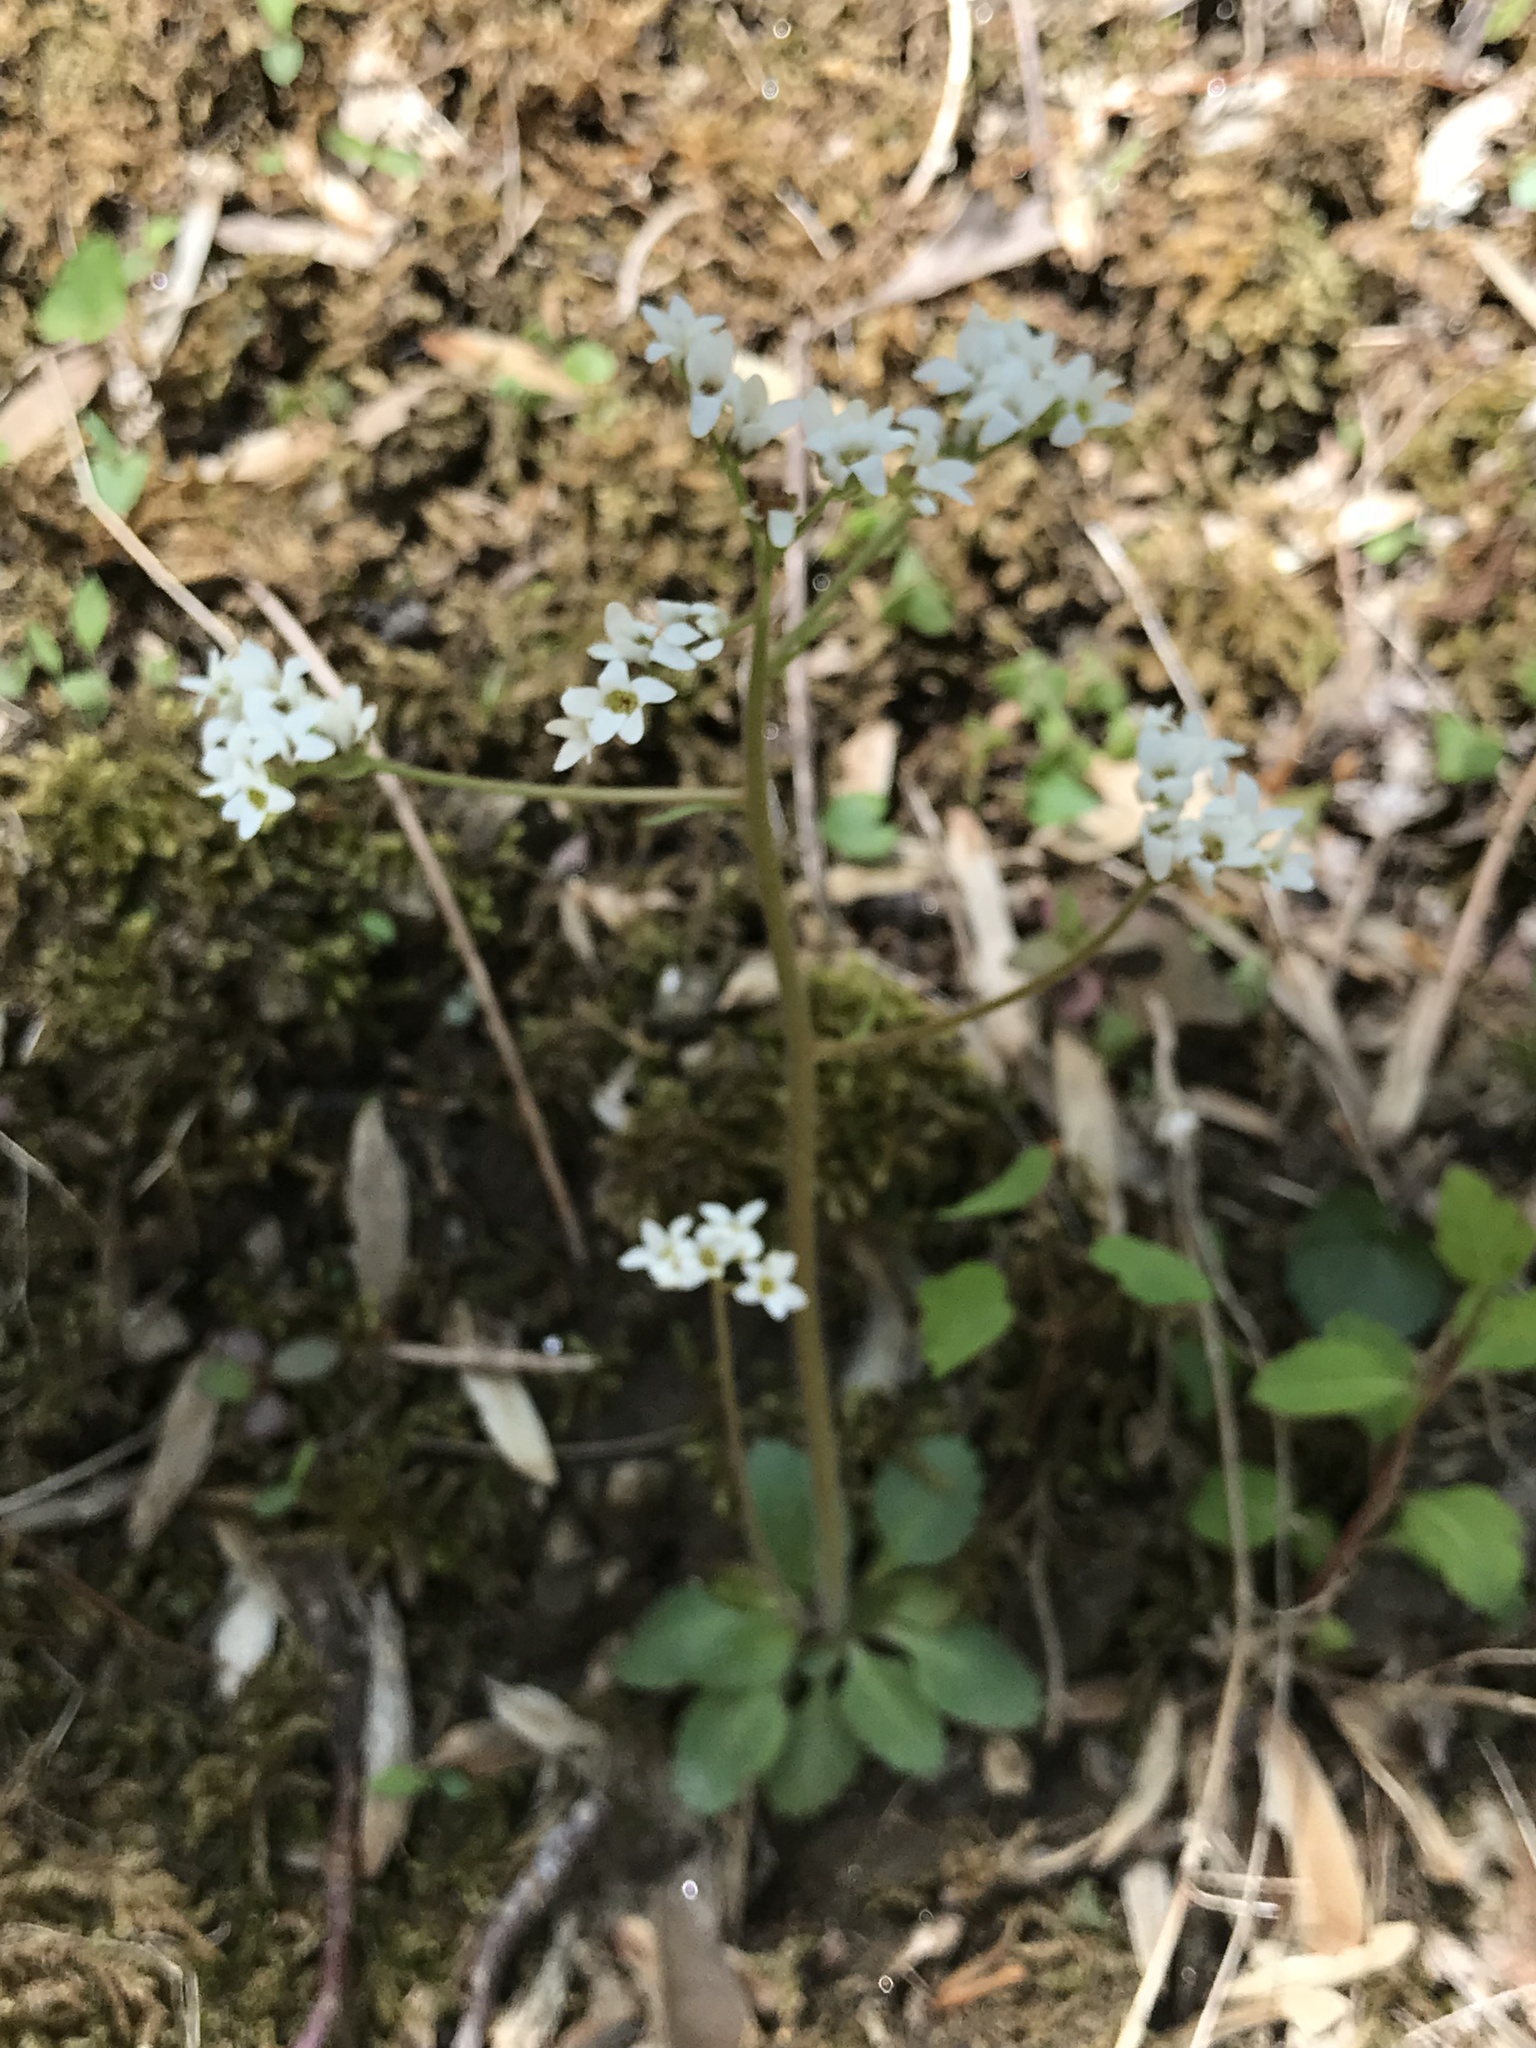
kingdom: Plantae
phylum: Tracheophyta
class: Magnoliopsida
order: Saxifragales
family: Saxifragaceae
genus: Micranthes
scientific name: Micranthes virginiensis
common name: Early saxifrage
